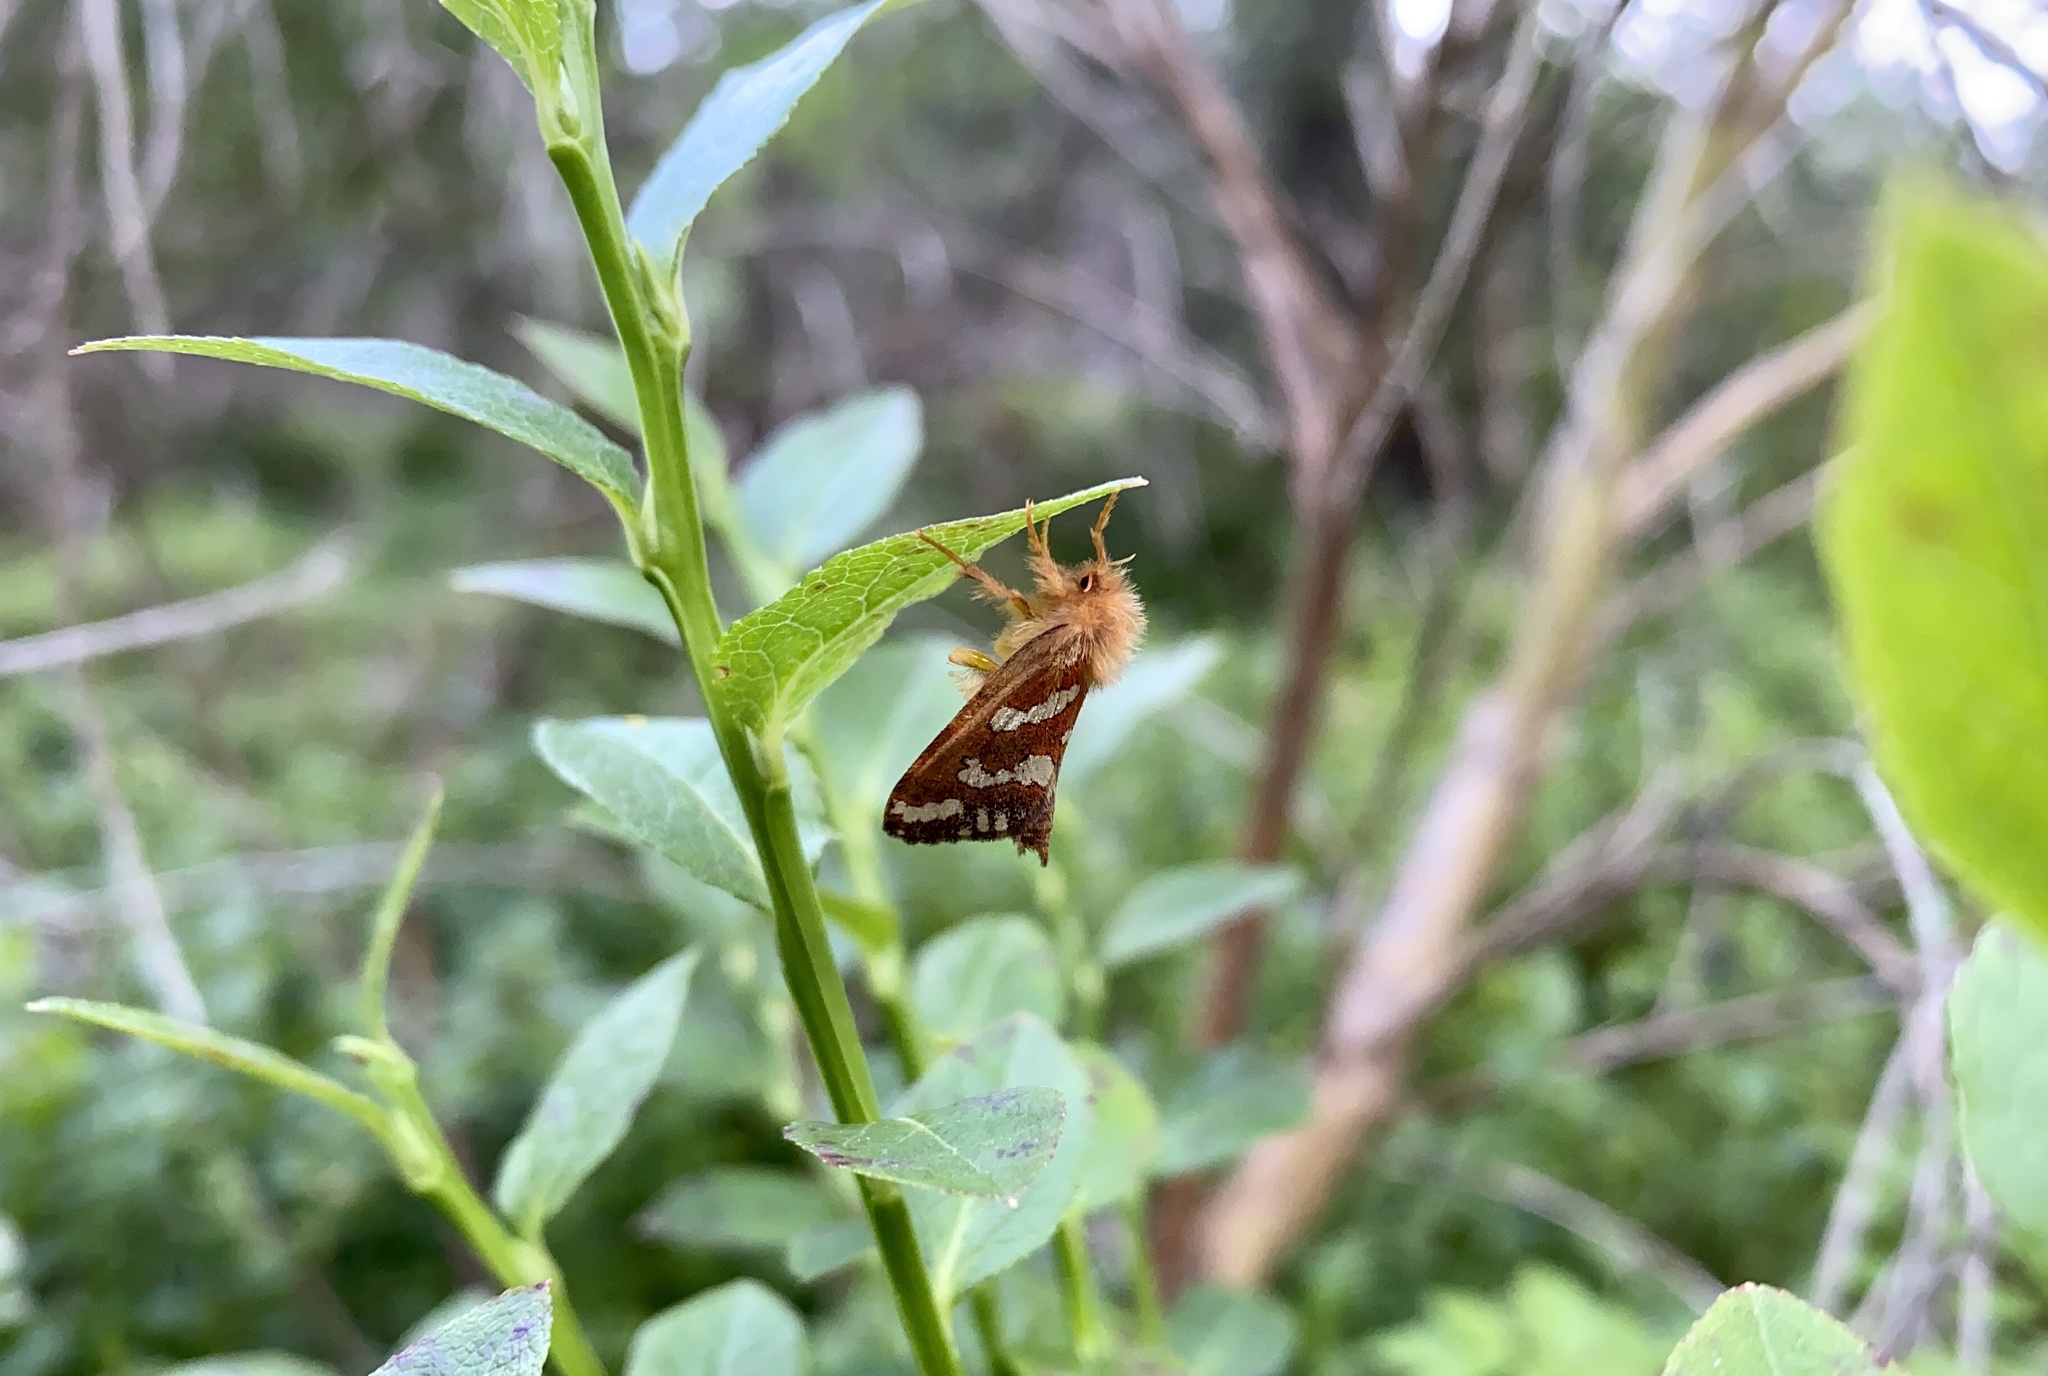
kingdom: Animalia
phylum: Arthropoda
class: Insecta
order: Lepidoptera
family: Hepialidae
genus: Phymatopus
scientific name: Phymatopus hecta
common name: Gold swift
